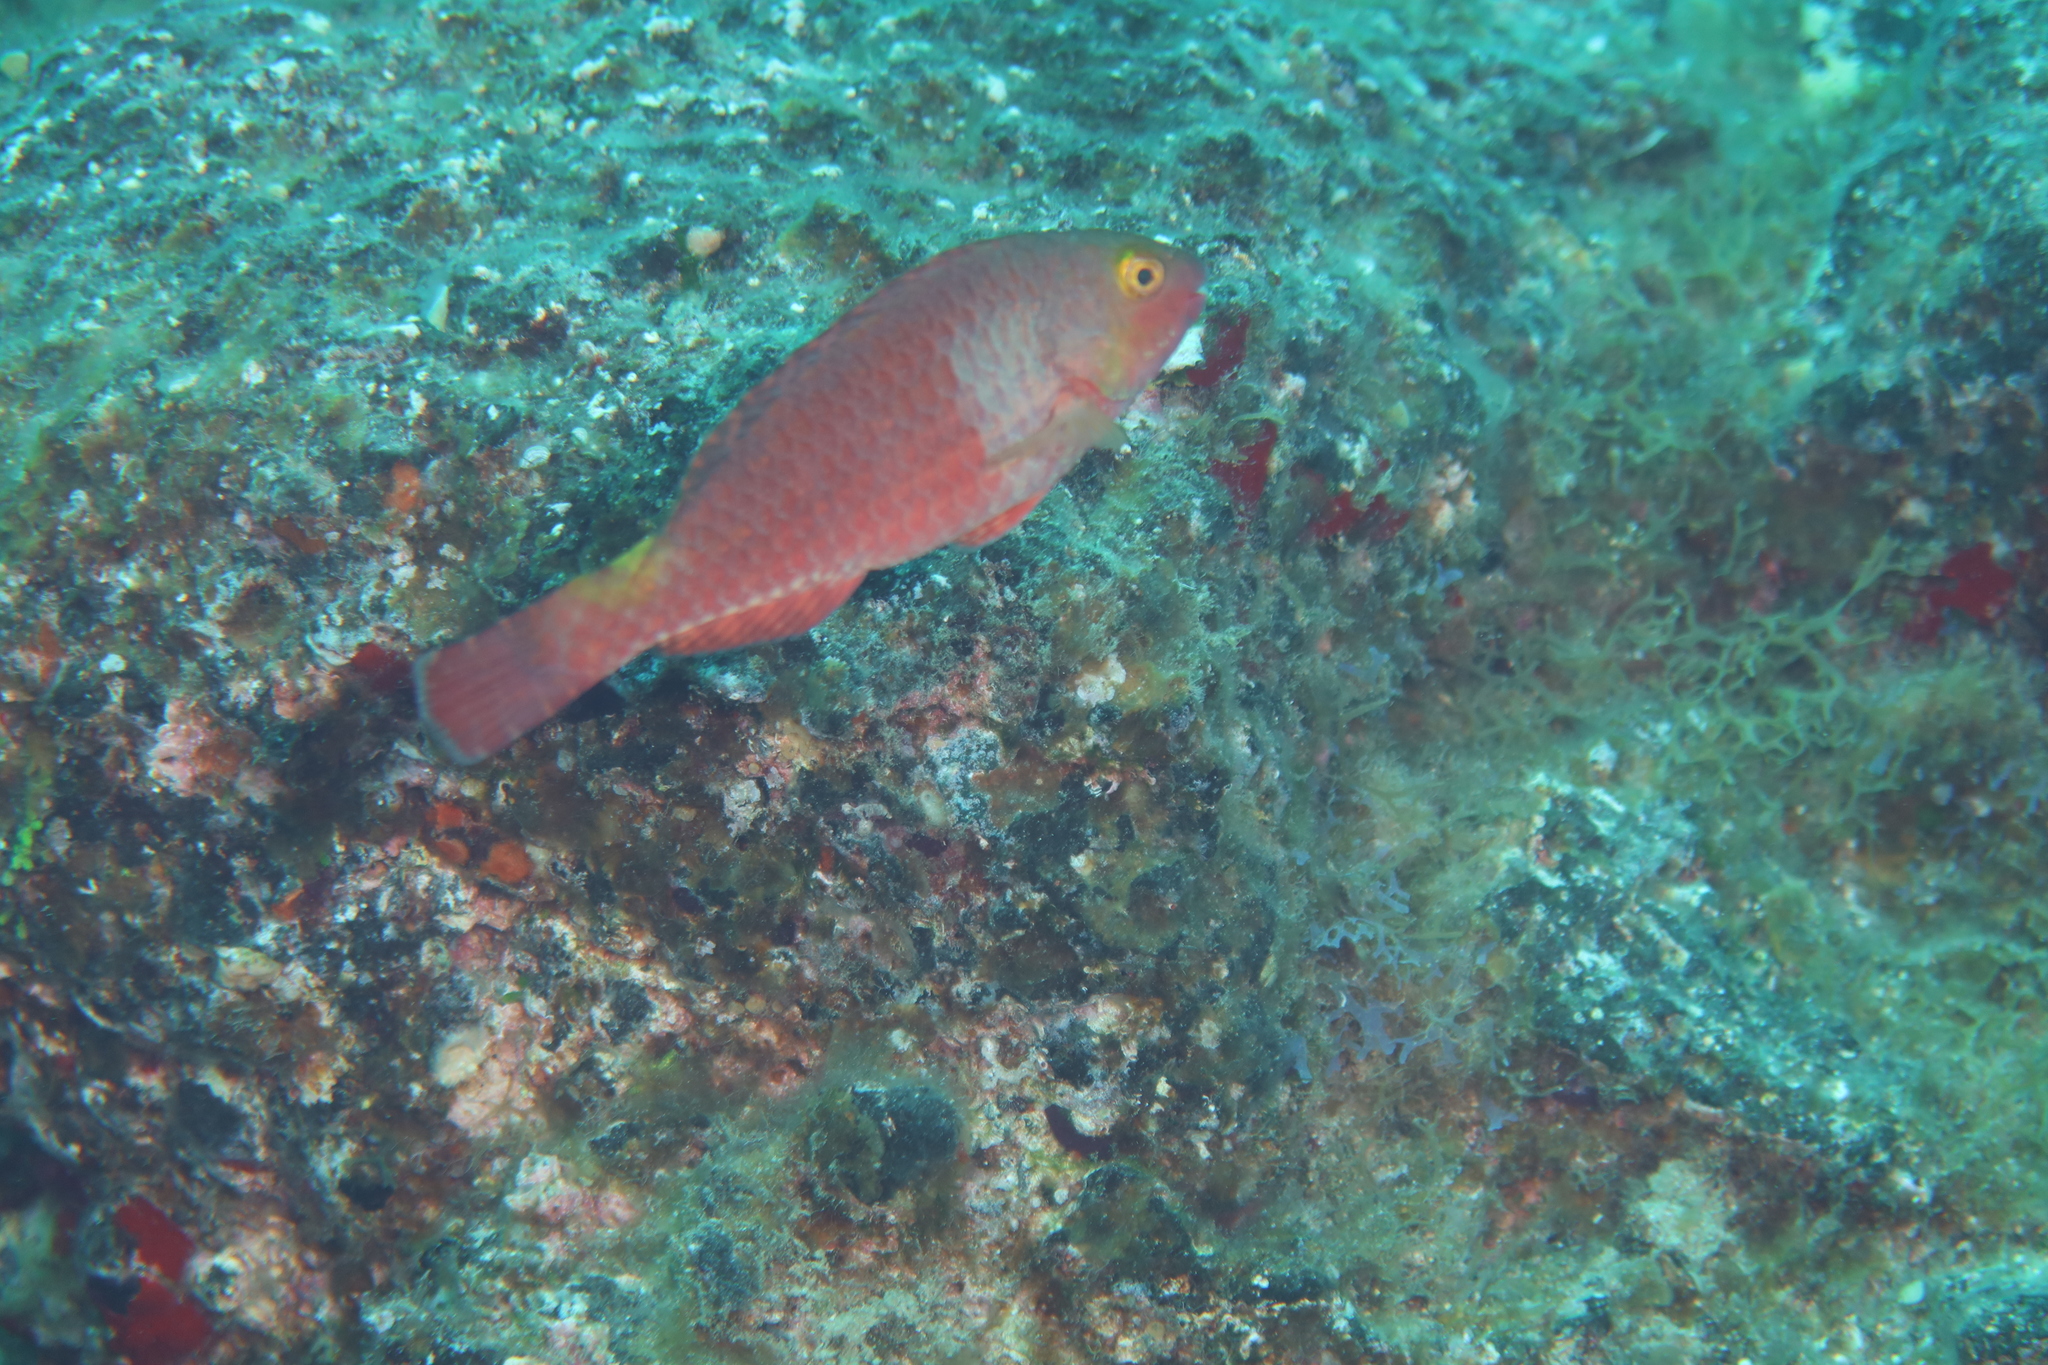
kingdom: Animalia
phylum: Chordata
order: Perciformes
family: Scaridae
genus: Sparisoma
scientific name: Sparisoma cretense
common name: Parrotfish
